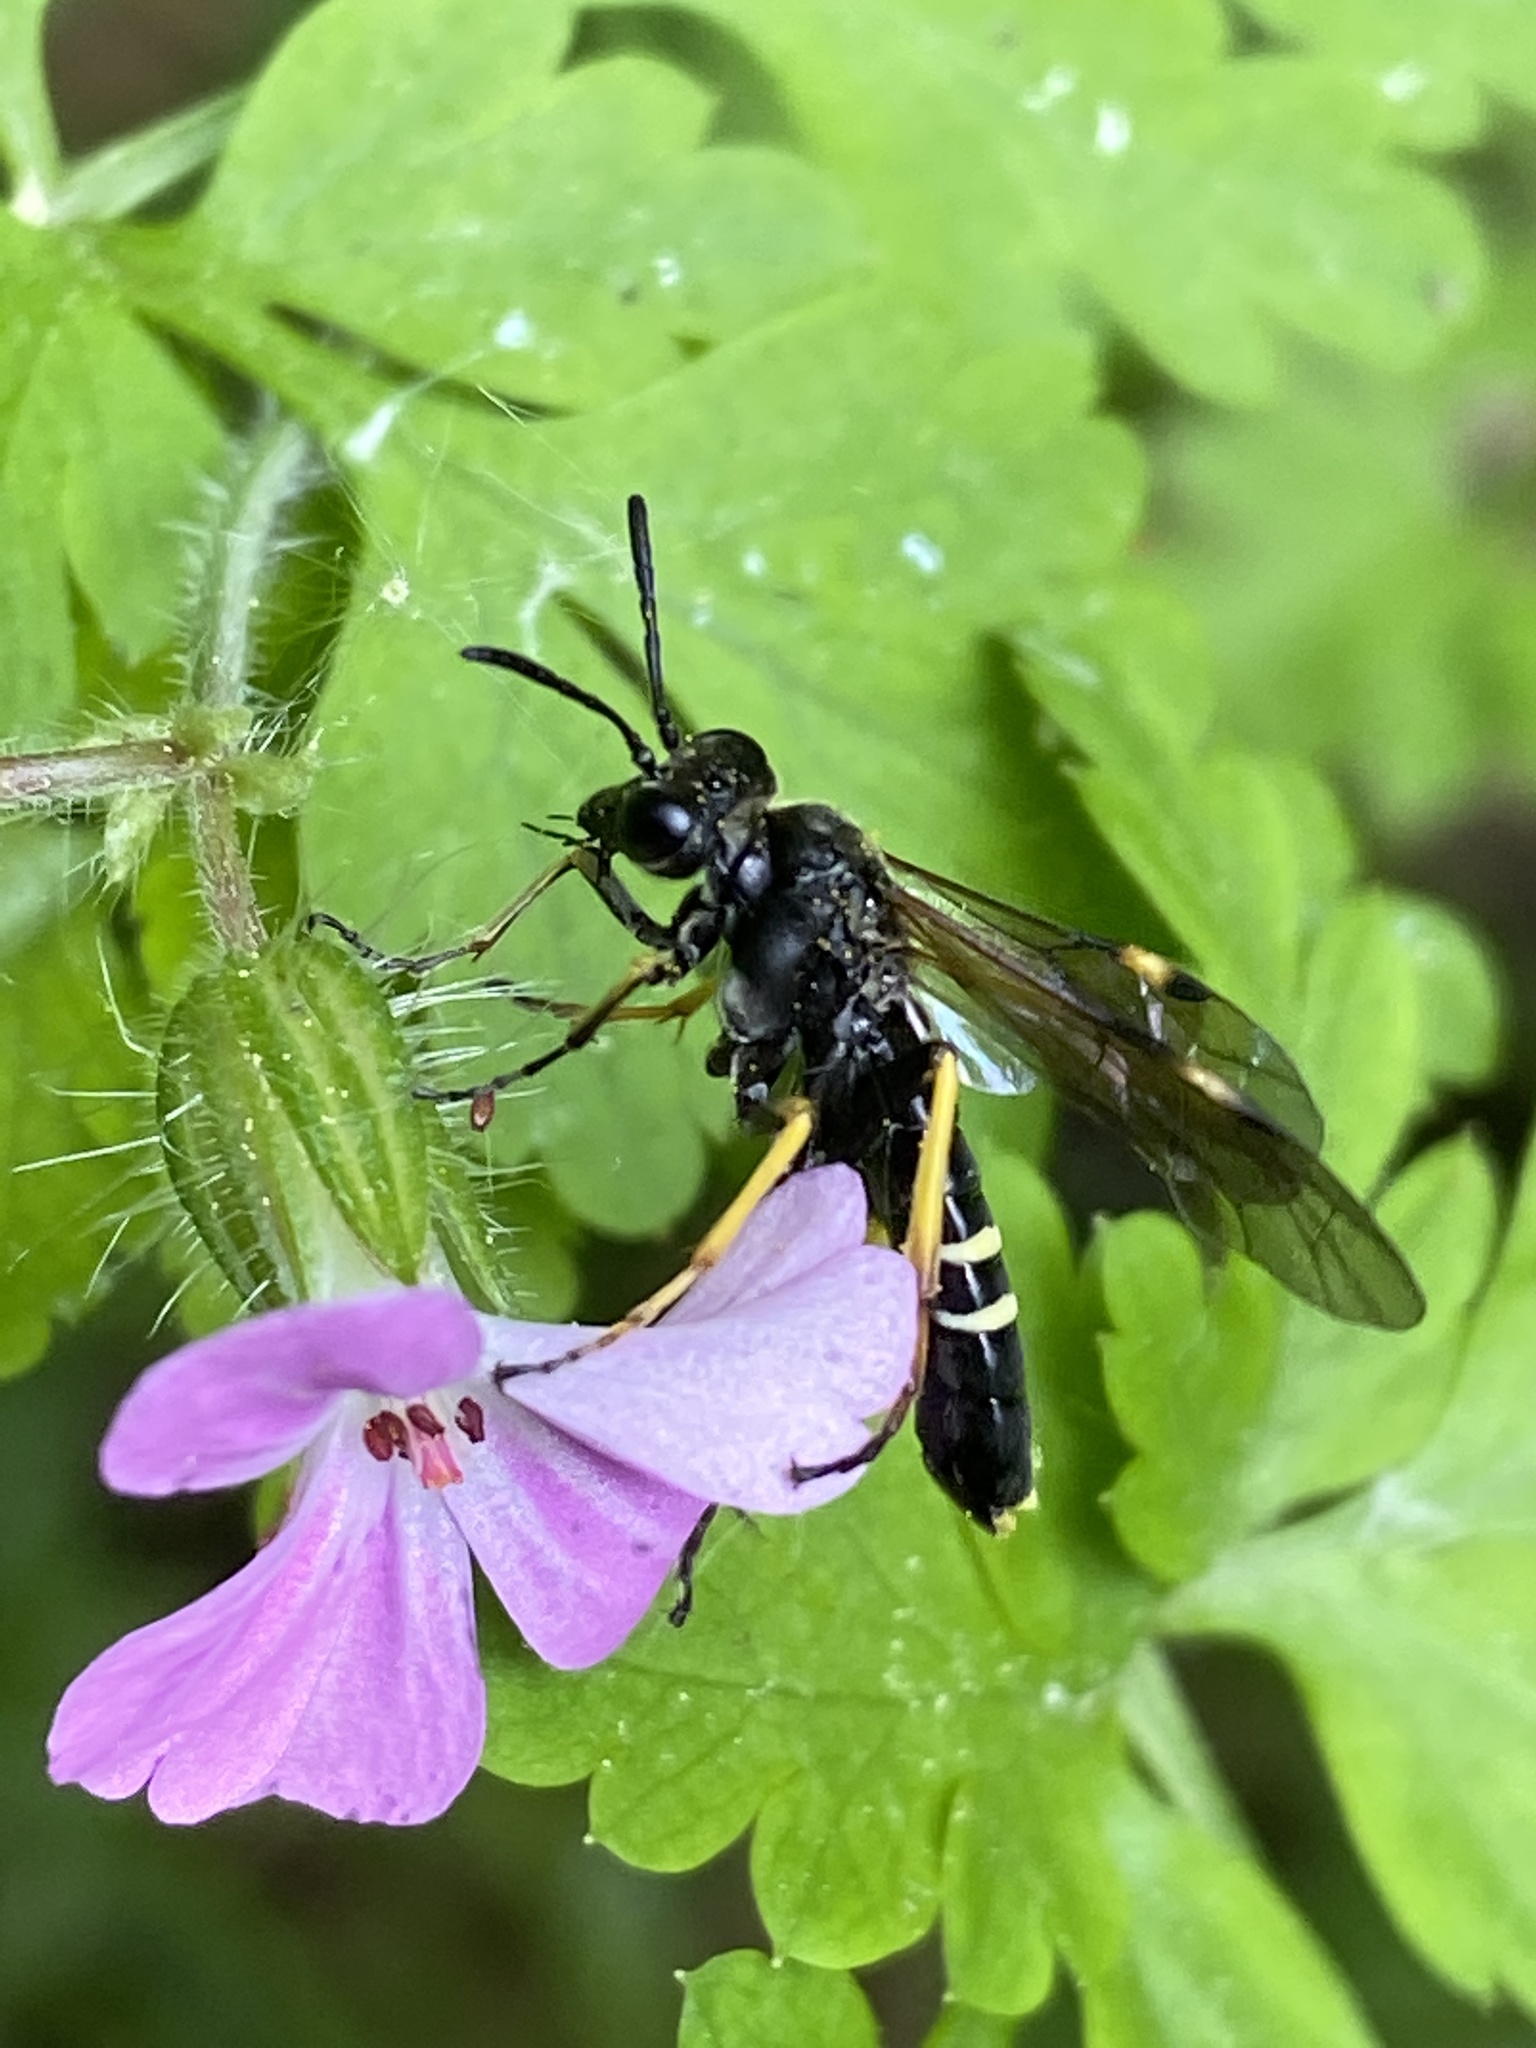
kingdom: Animalia
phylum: Arthropoda
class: Insecta
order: Hymenoptera
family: Tenthredinidae
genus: Tenthredo
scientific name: Tenthredo koehleri
